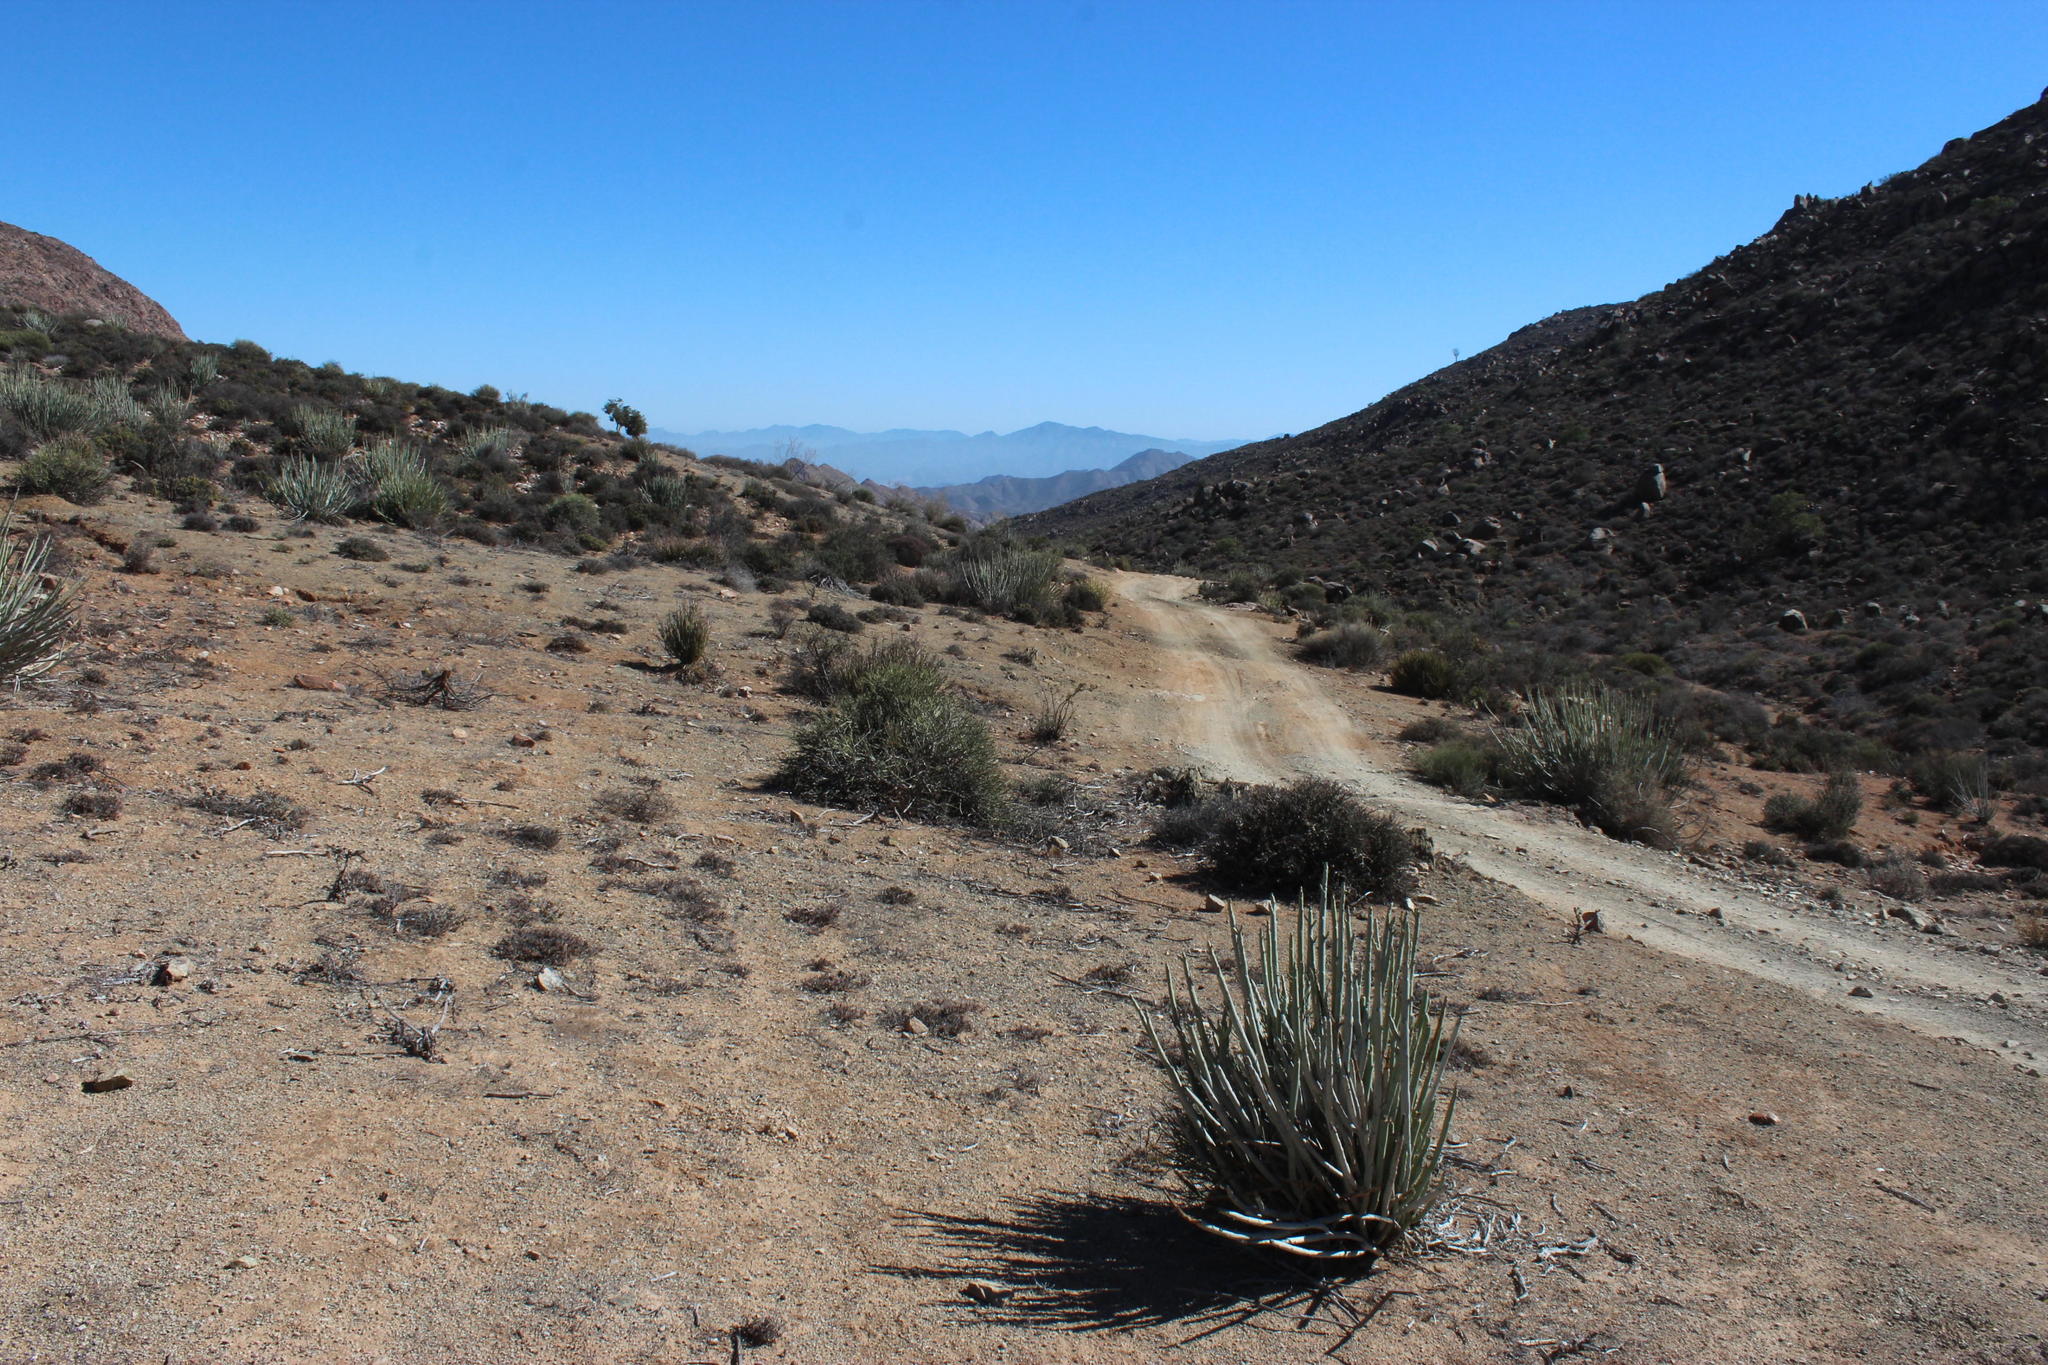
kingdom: Plantae
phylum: Tracheophyta
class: Magnoliopsida
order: Malpighiales
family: Euphorbiaceae
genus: Euphorbia
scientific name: Euphorbia dregeana
